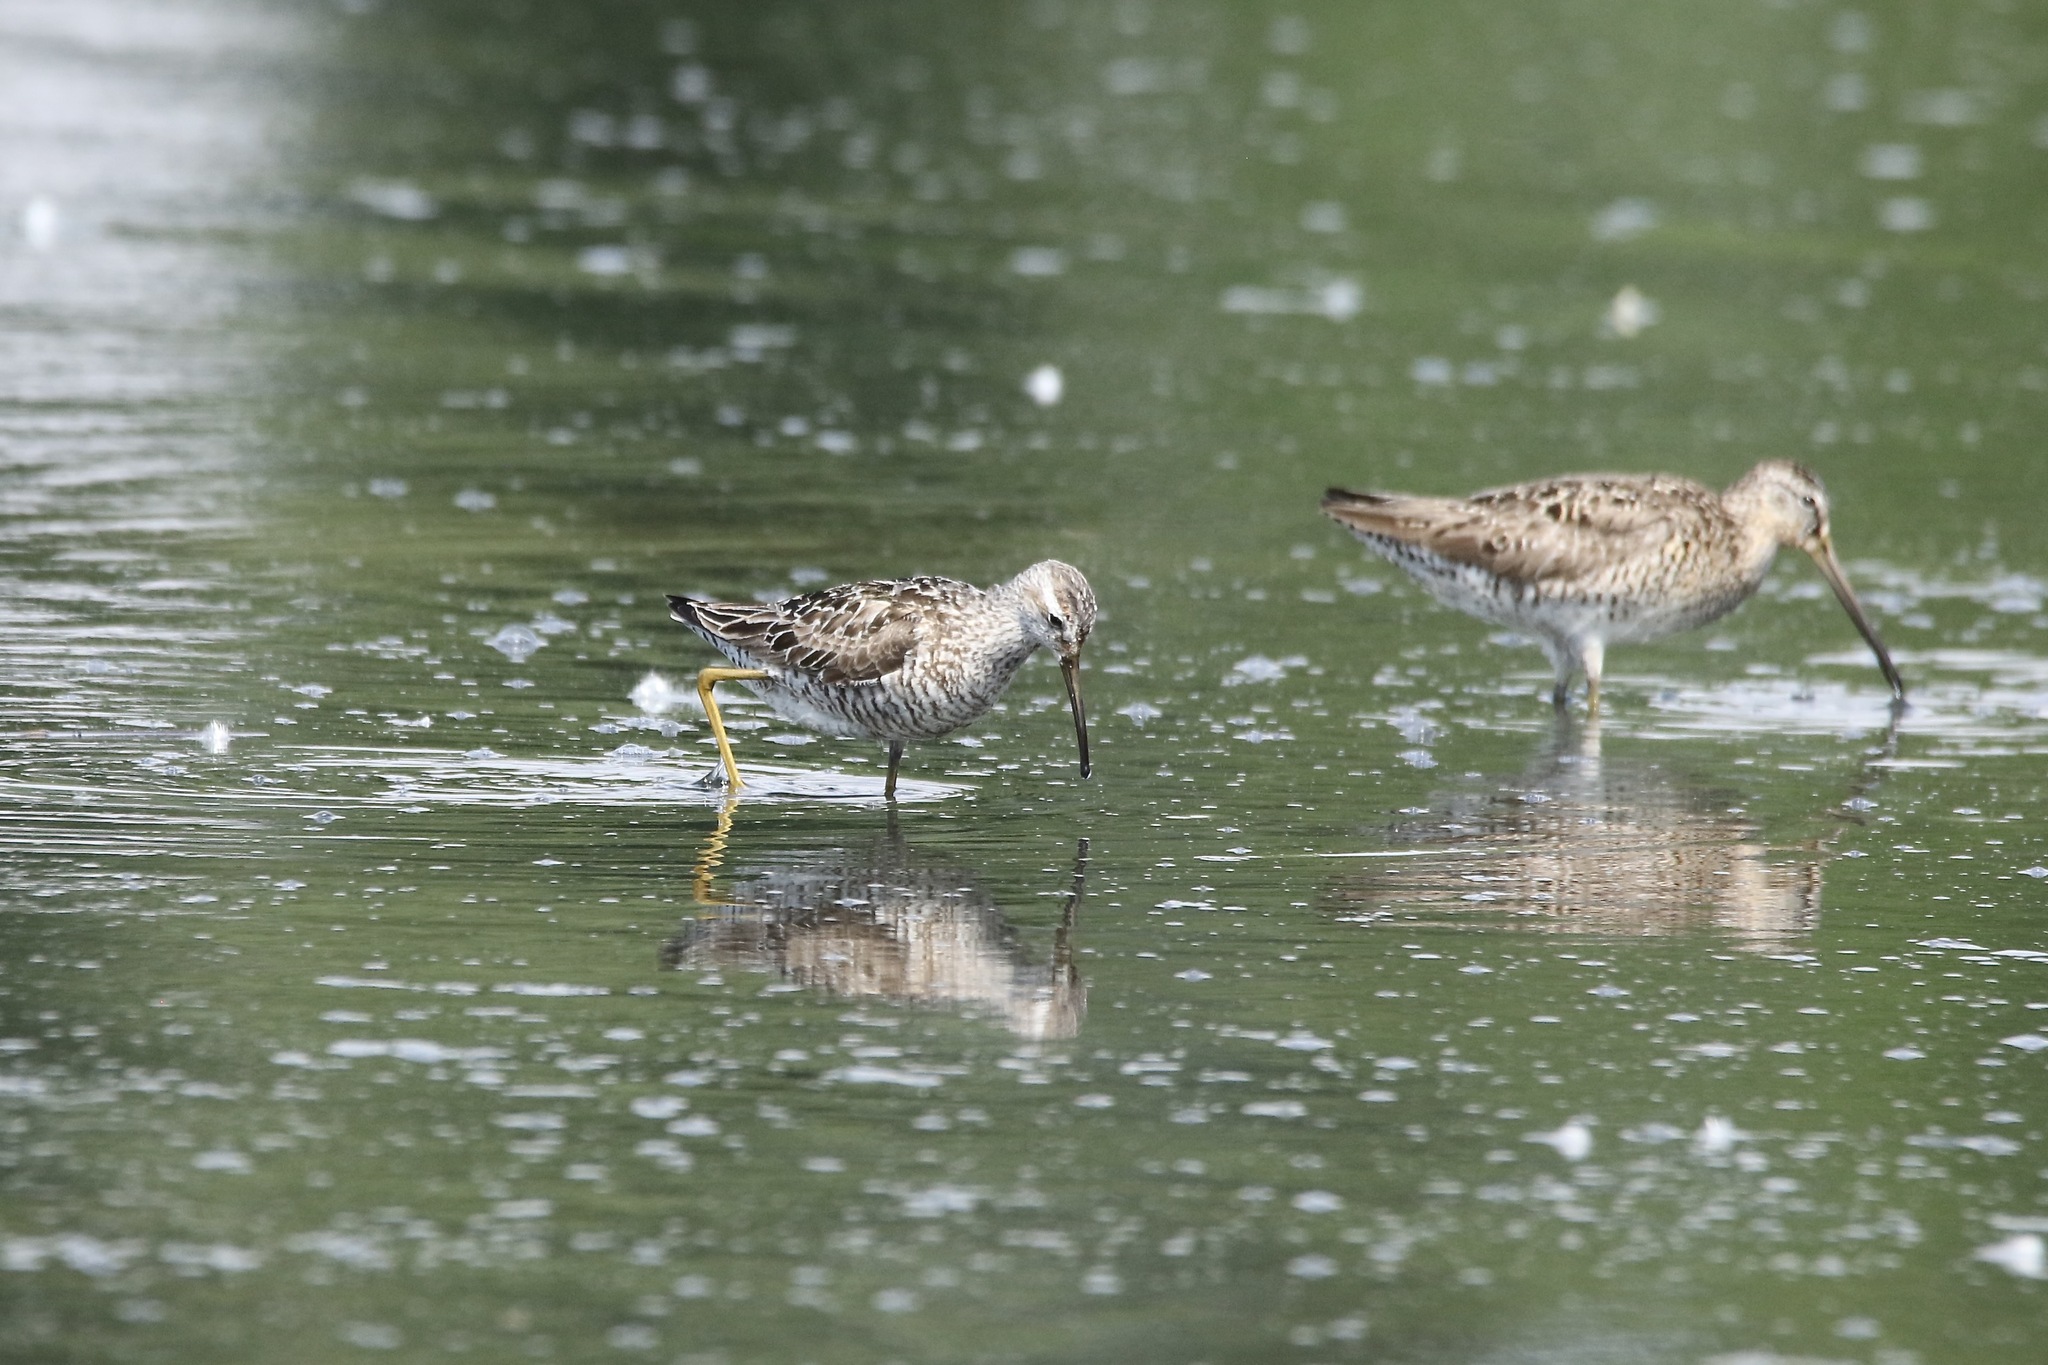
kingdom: Animalia
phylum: Chordata
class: Aves
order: Charadriiformes
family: Scolopacidae
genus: Calidris
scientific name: Calidris himantopus
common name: Stilt sandpiper
